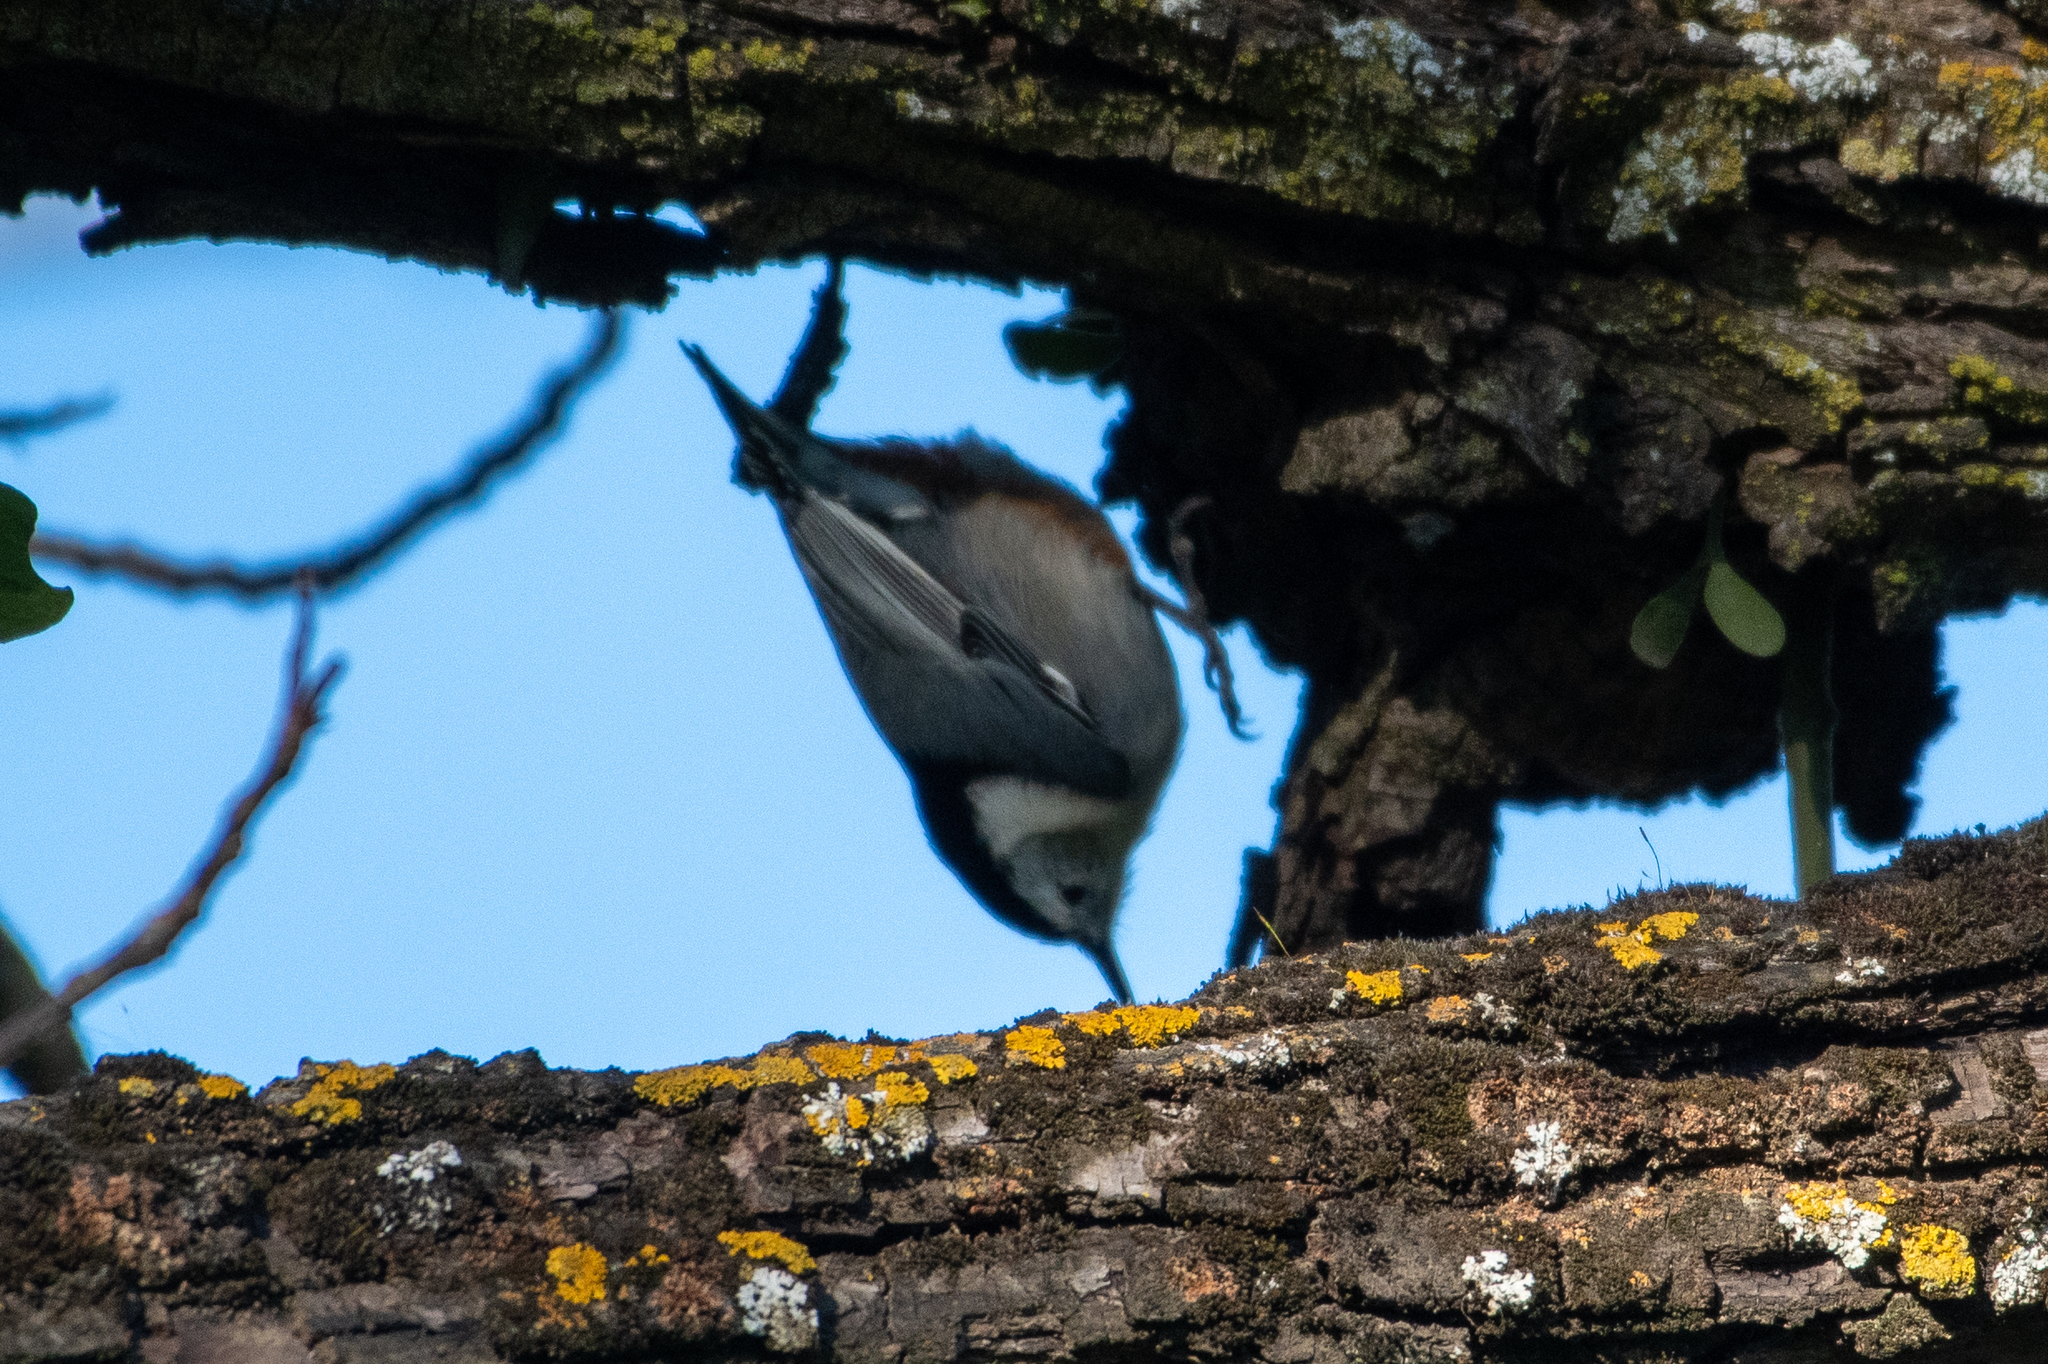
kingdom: Animalia
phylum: Chordata
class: Aves
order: Passeriformes
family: Sittidae
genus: Sitta
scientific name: Sitta carolinensis
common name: White-breasted nuthatch
